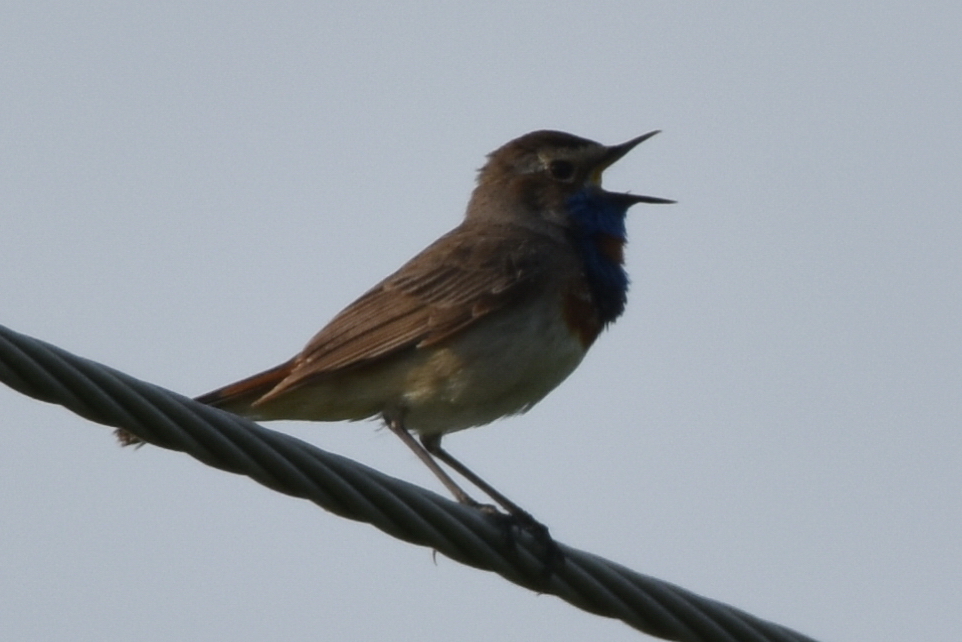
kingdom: Animalia
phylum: Chordata
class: Aves
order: Passeriformes
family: Muscicapidae
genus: Luscinia
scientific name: Luscinia svecica
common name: Bluethroat
